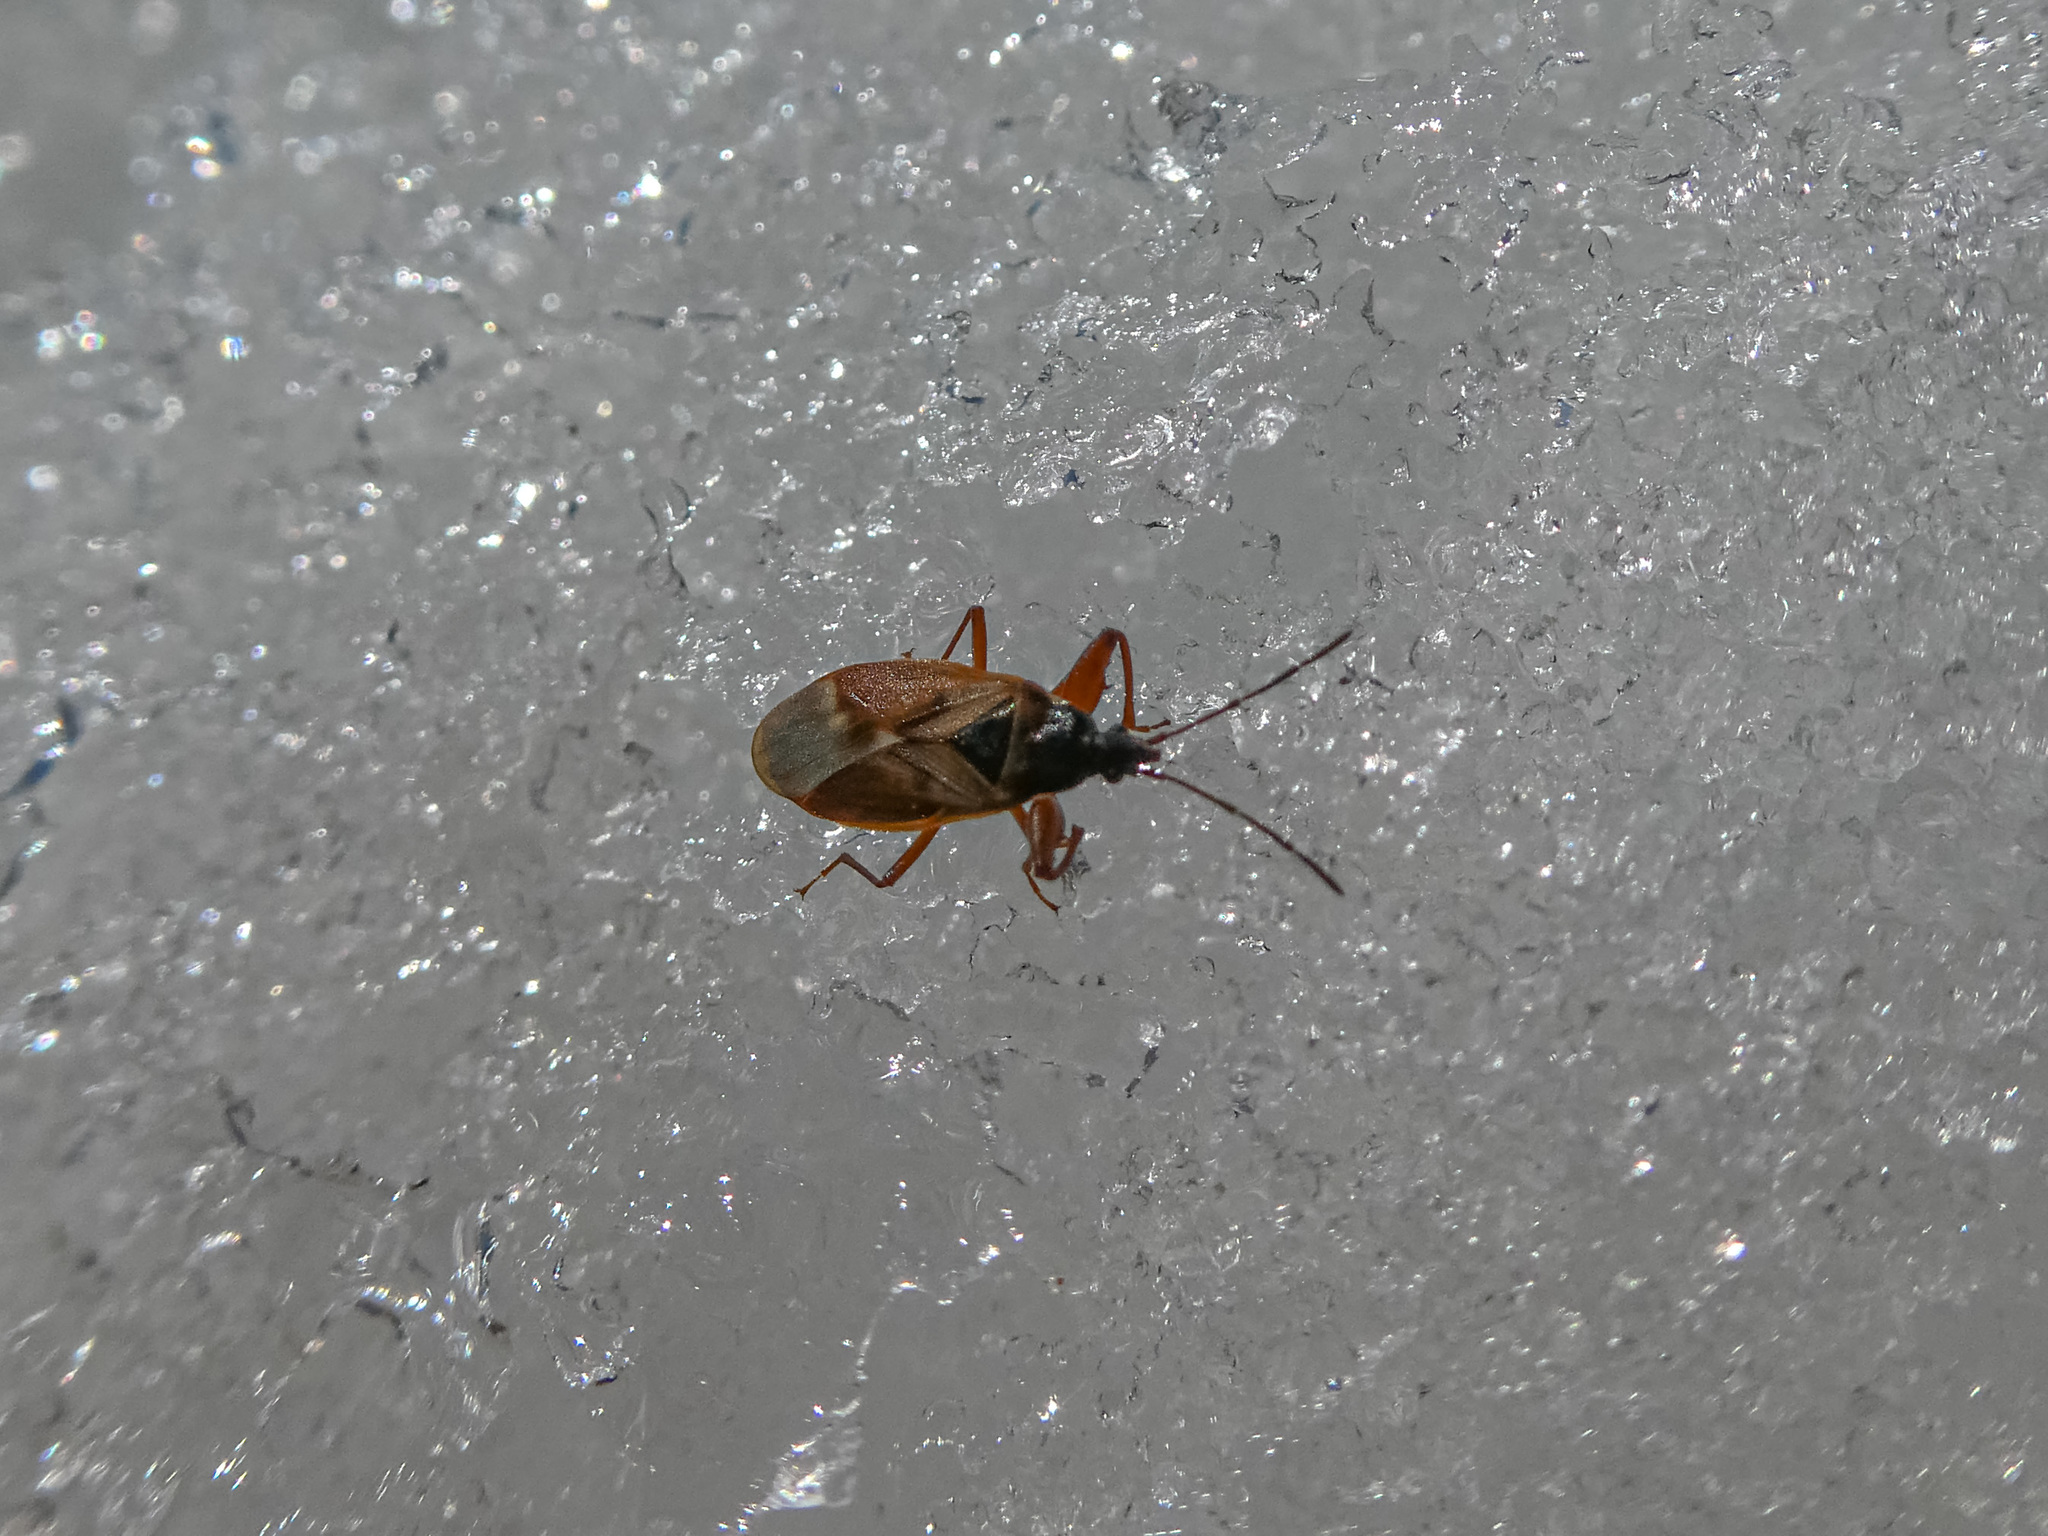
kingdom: Animalia
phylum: Arthropoda
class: Insecta
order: Hemiptera
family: Rhyparochromidae
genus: Gastrodes
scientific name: Gastrodes abietum
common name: Spruce cone bug
